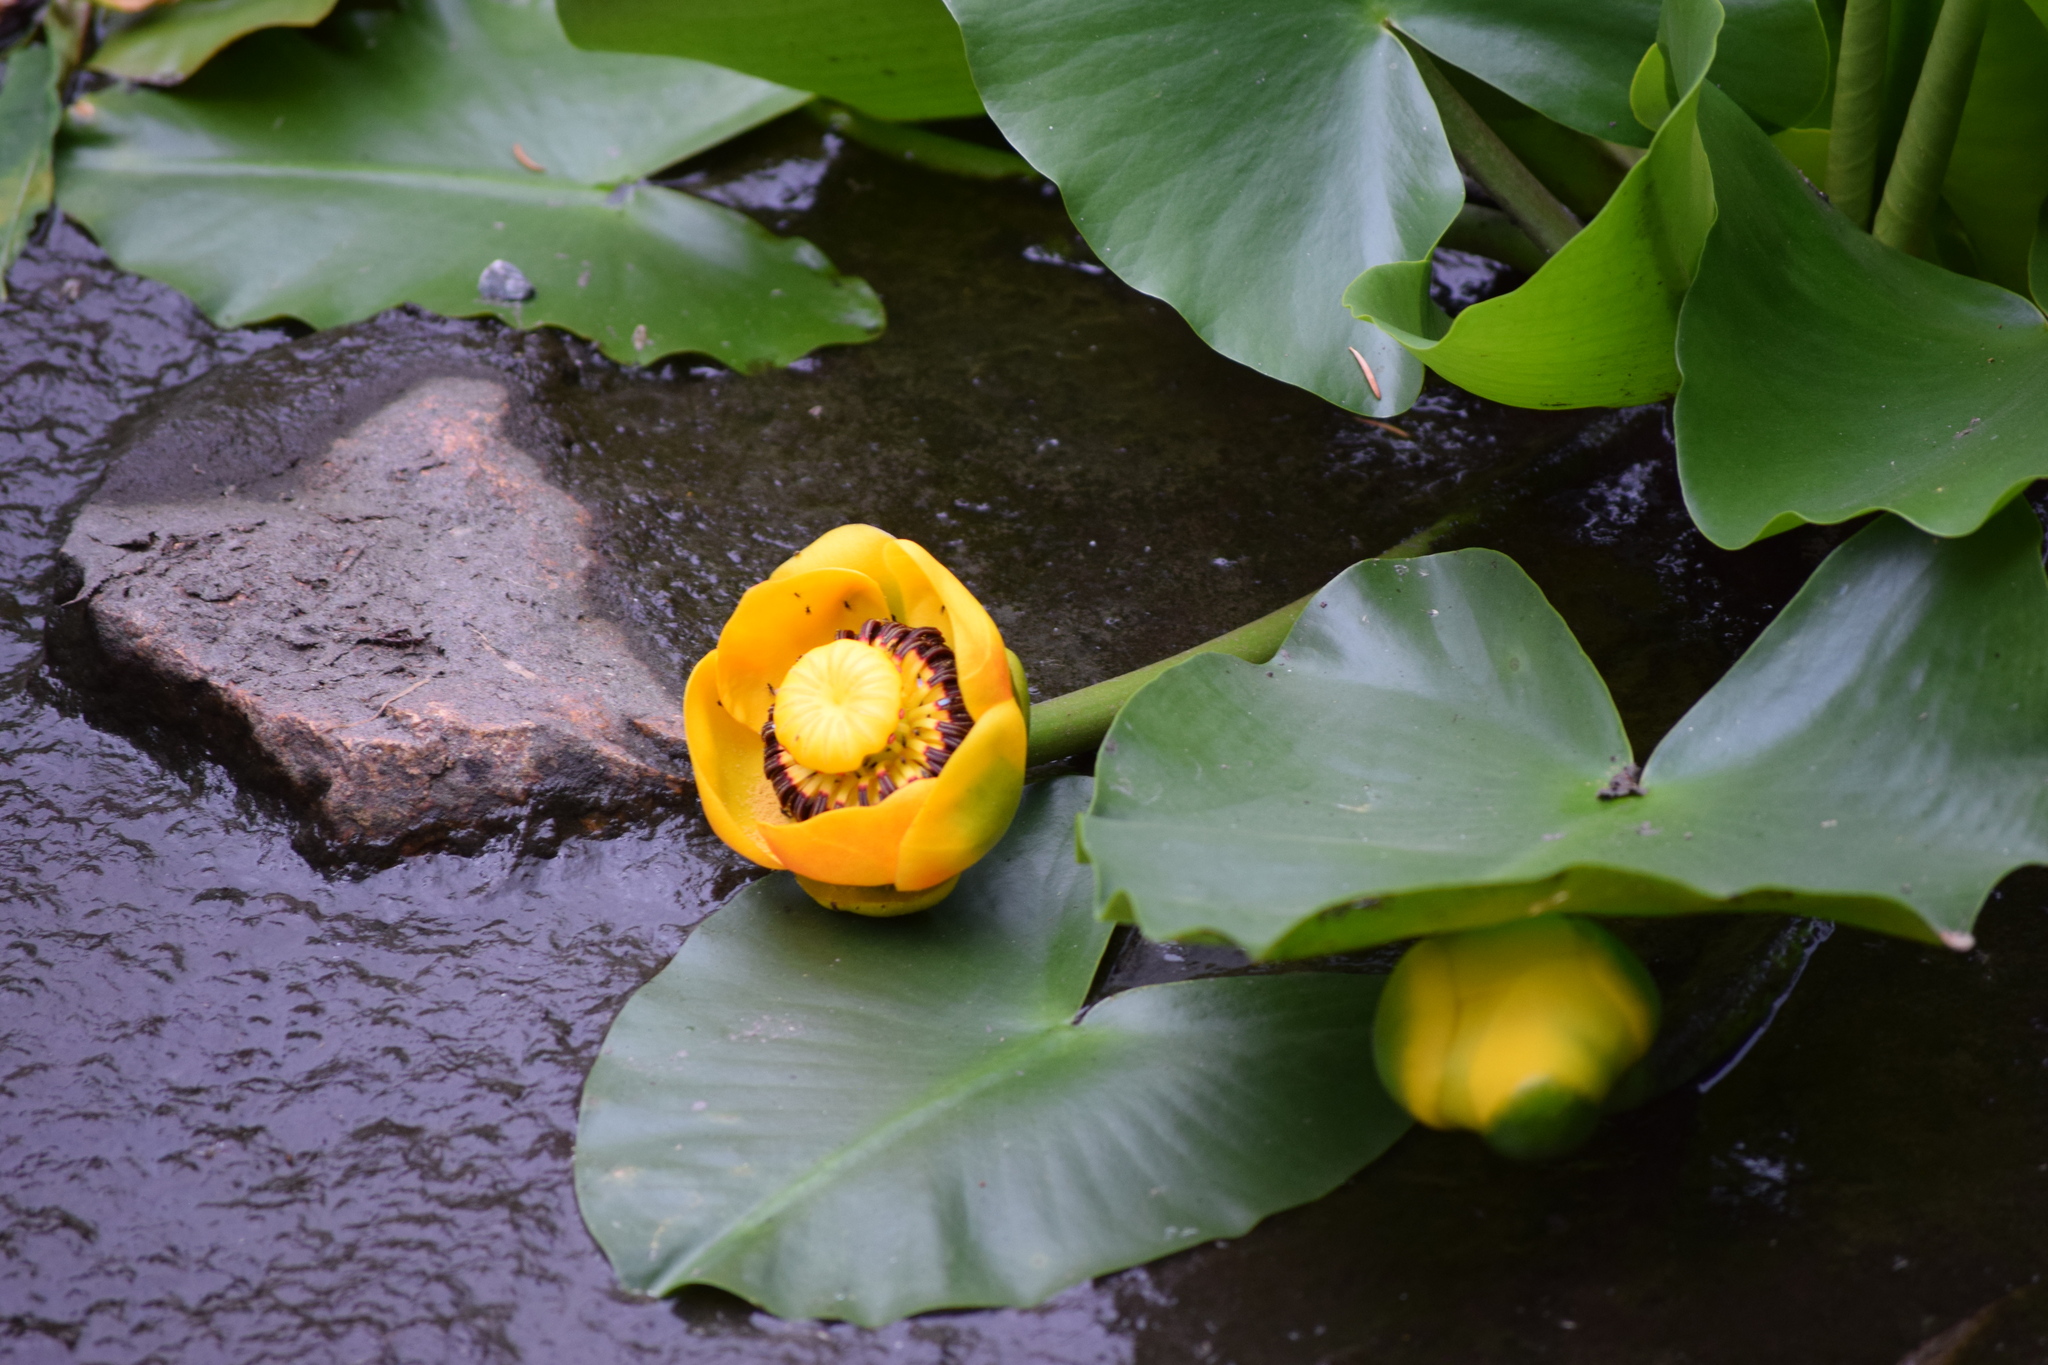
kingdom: Plantae
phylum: Tracheophyta
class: Magnoliopsida
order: Nymphaeales
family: Nymphaeaceae
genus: Nuphar
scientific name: Nuphar polysepala
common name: Rocky mountain cow-lily
